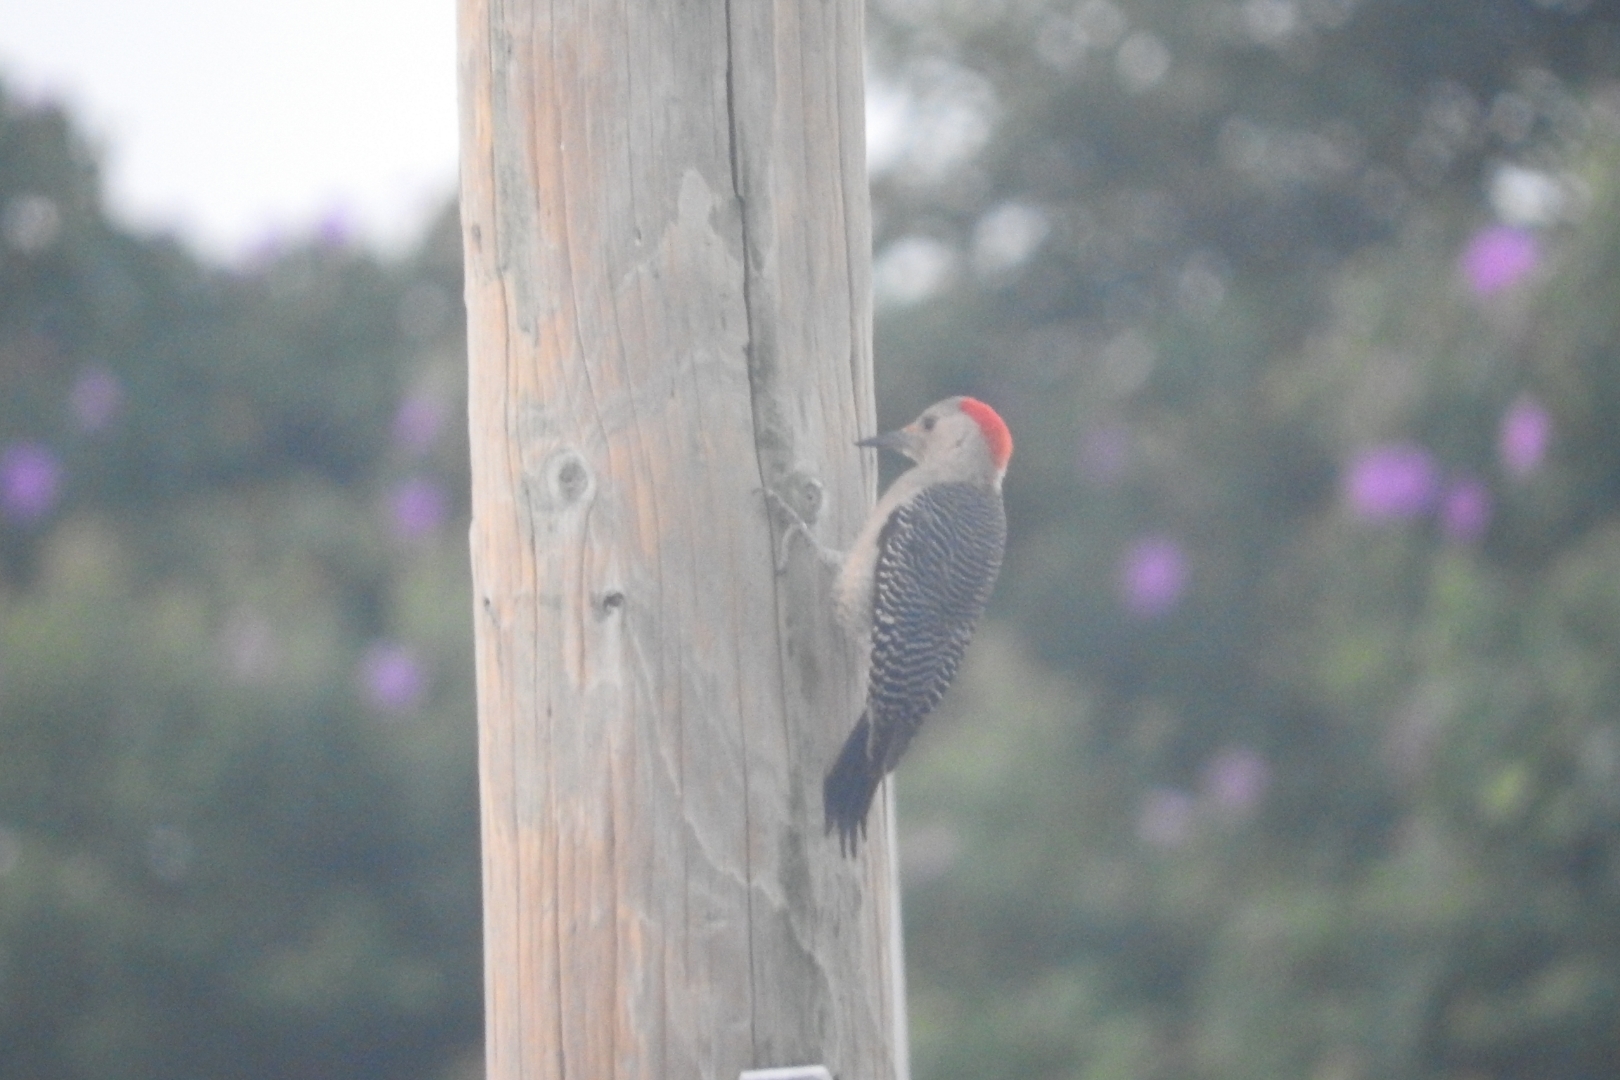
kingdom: Animalia
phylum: Chordata
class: Aves
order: Piciformes
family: Picidae
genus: Melanerpes
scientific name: Melanerpes aurifrons
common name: Golden-fronted woodpecker
